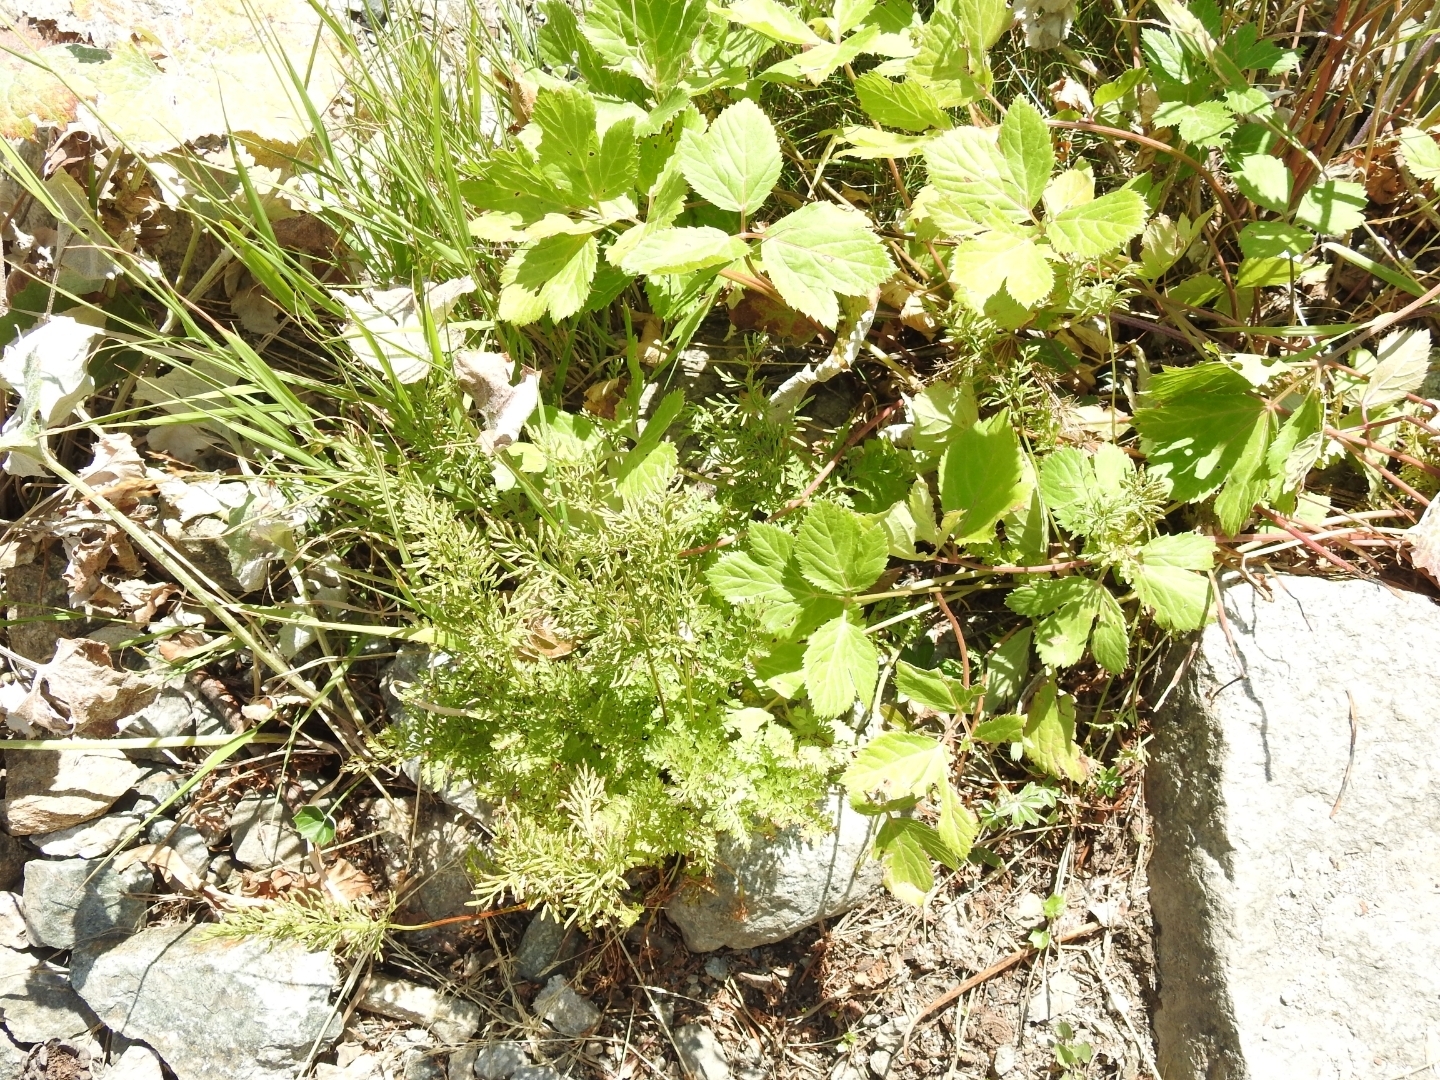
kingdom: Plantae
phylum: Tracheophyta
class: Polypodiopsida
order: Polypodiales
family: Pteridaceae
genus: Cryptogramma
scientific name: Cryptogramma crispa
